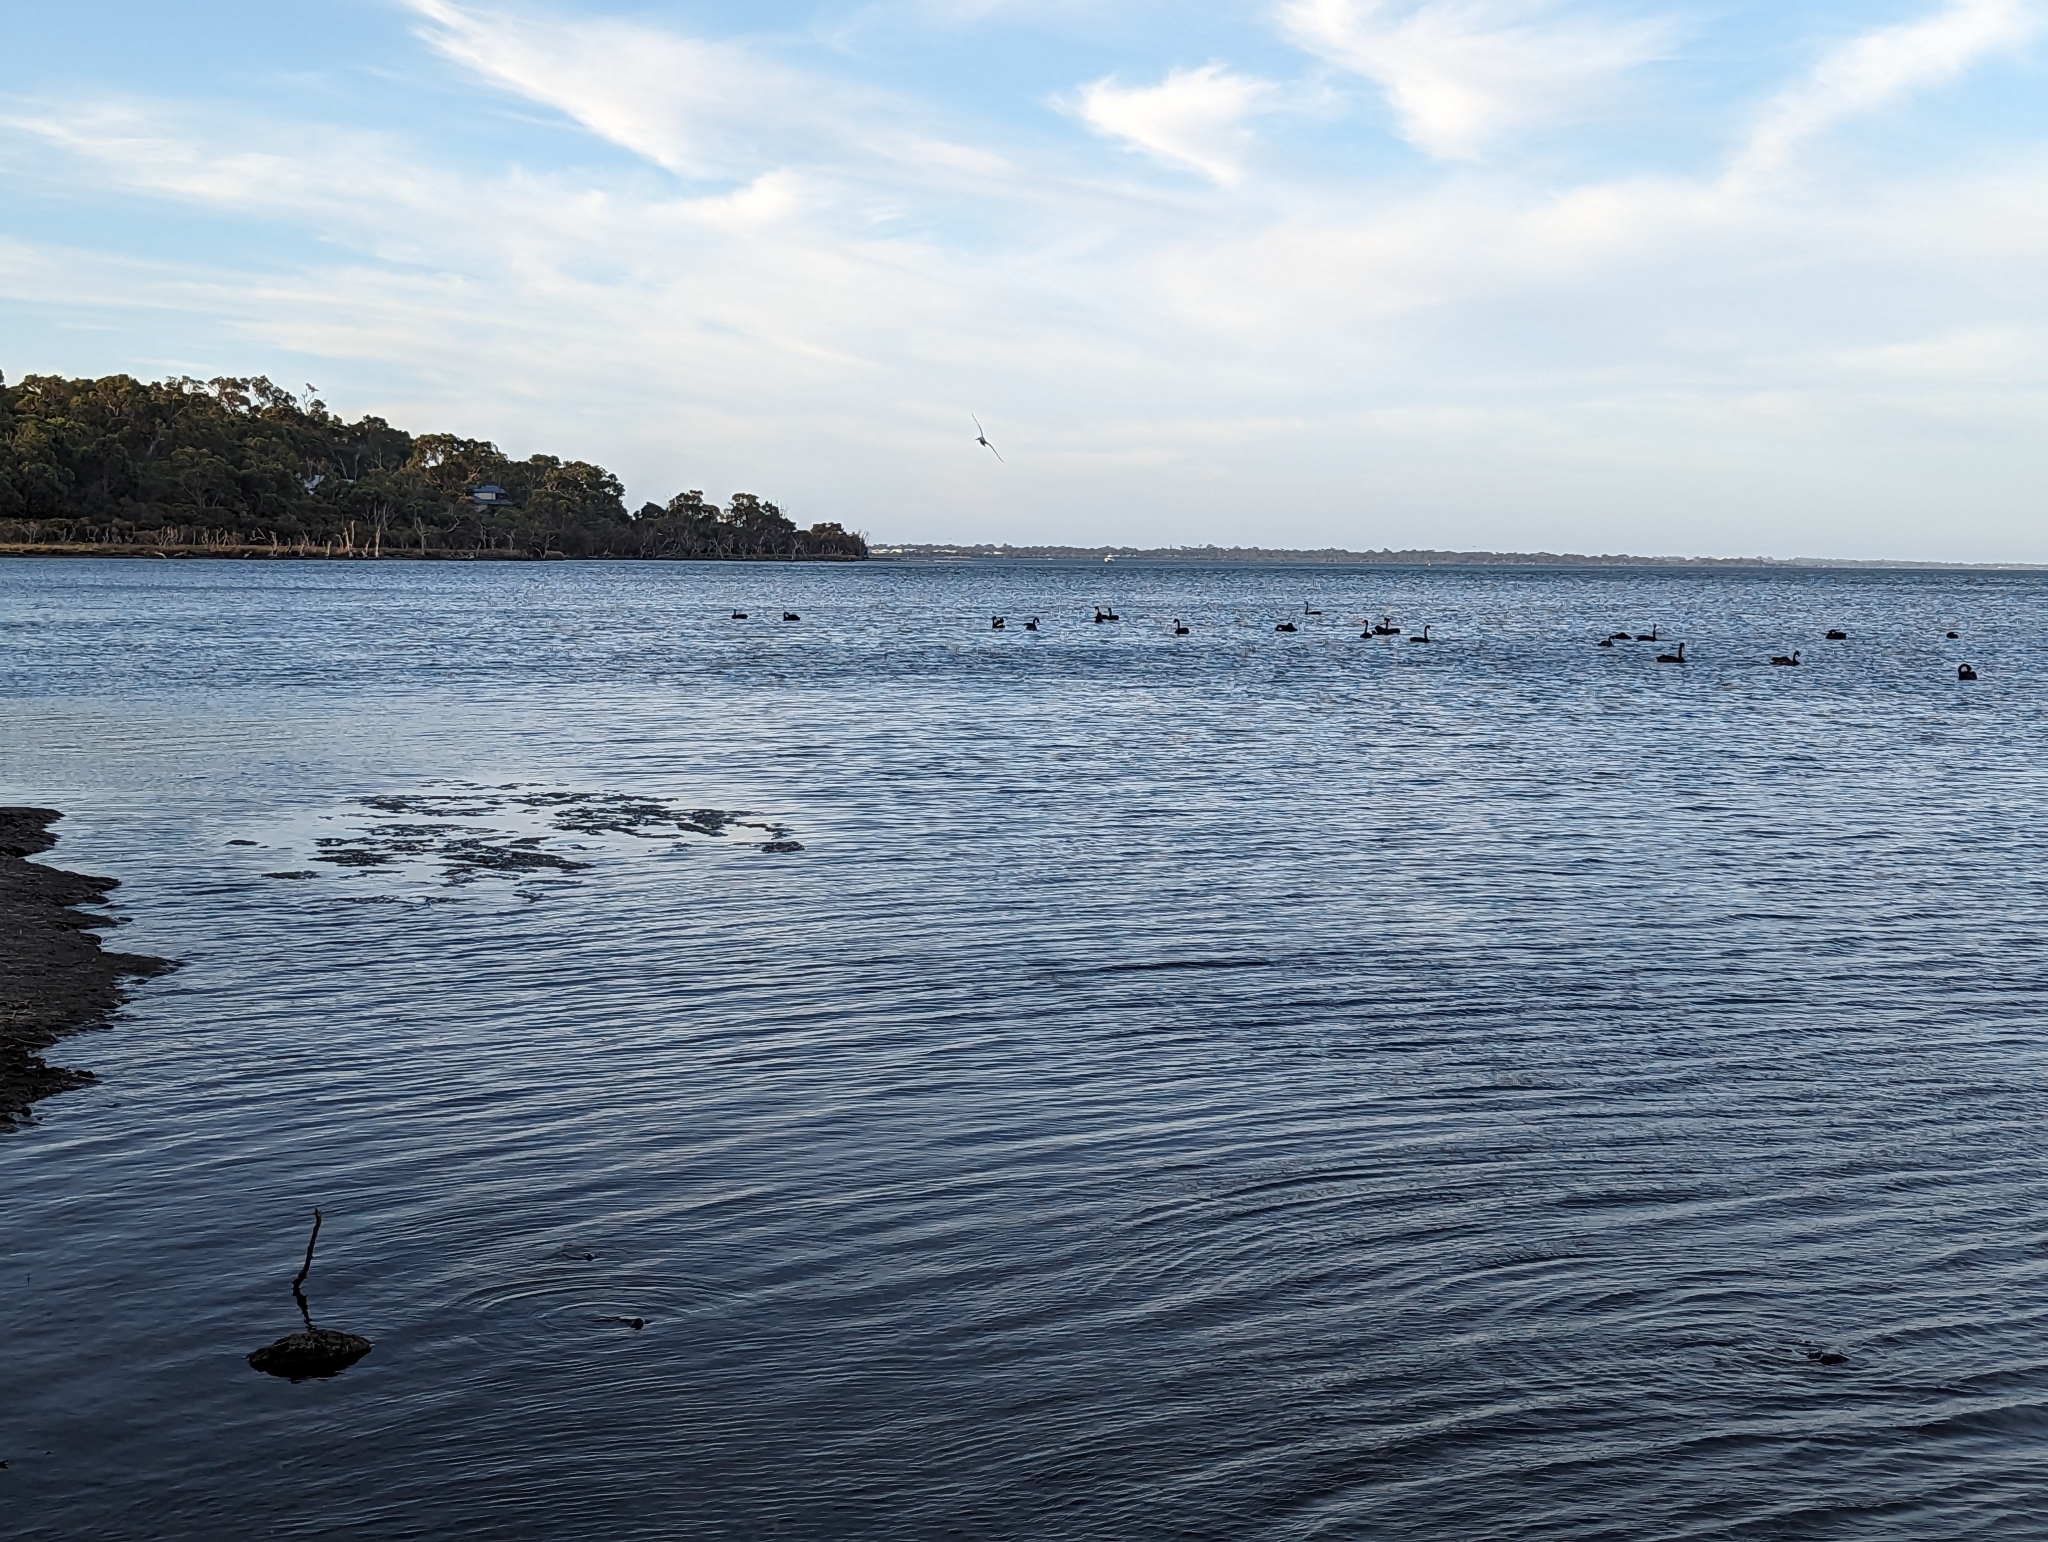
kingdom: Animalia
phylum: Chordata
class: Aves
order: Anseriformes
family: Anatidae
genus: Cygnus
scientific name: Cygnus atratus
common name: Black swan
